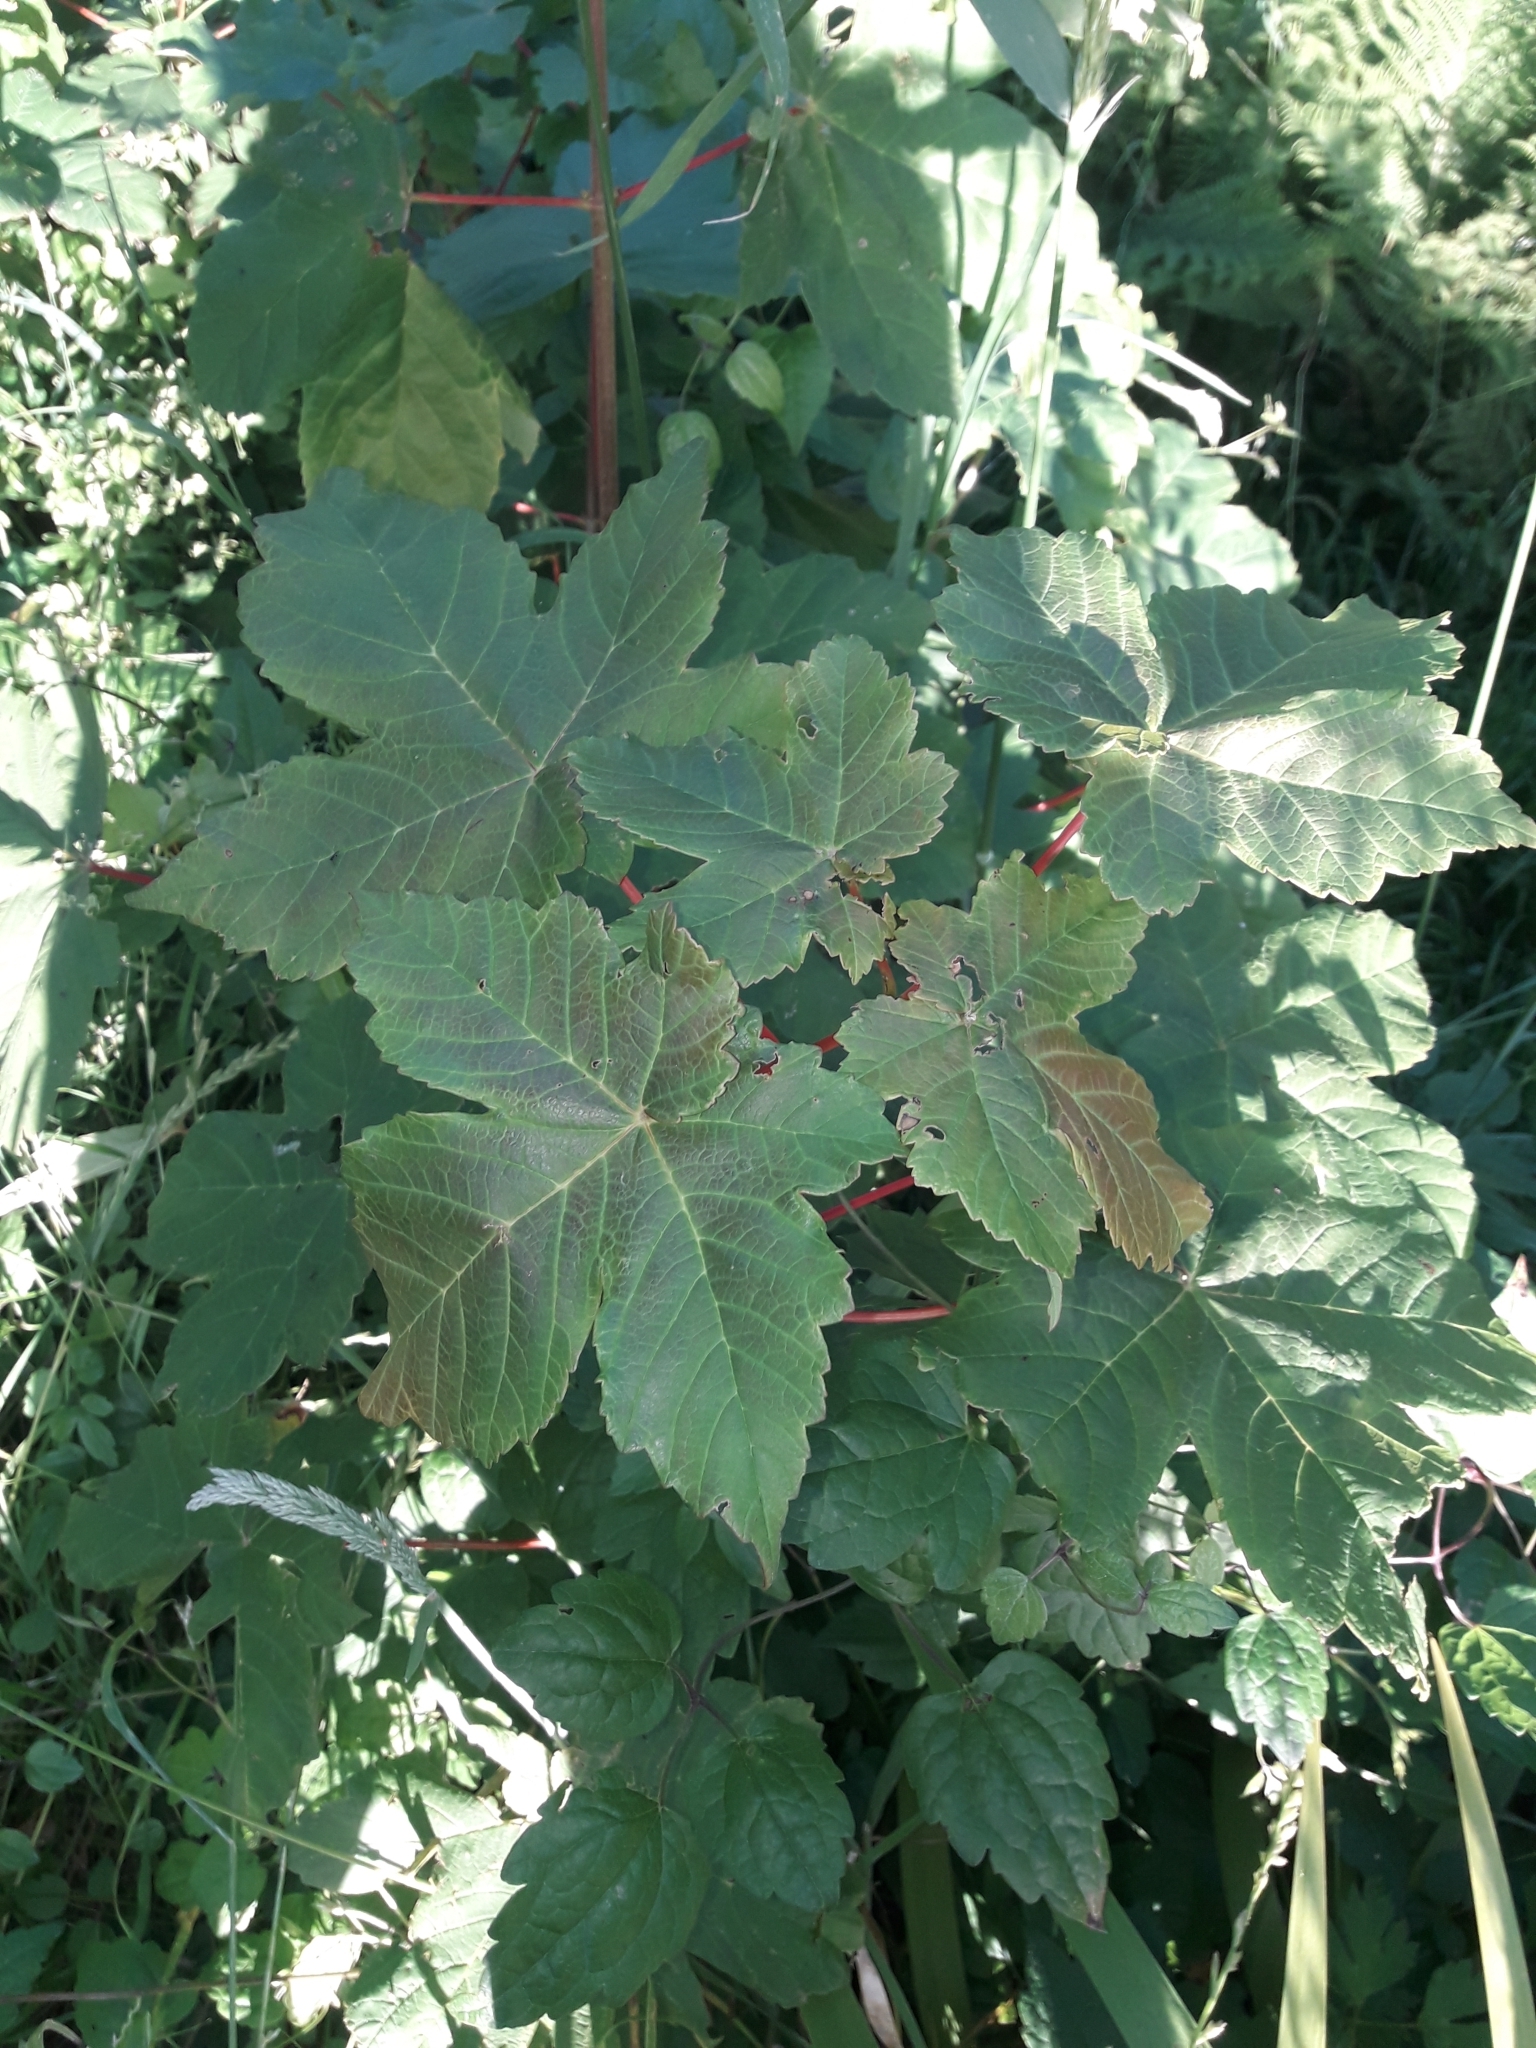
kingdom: Plantae
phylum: Tracheophyta
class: Magnoliopsida
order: Sapindales
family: Sapindaceae
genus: Acer
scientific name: Acer pseudoplatanus
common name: Sycamore
